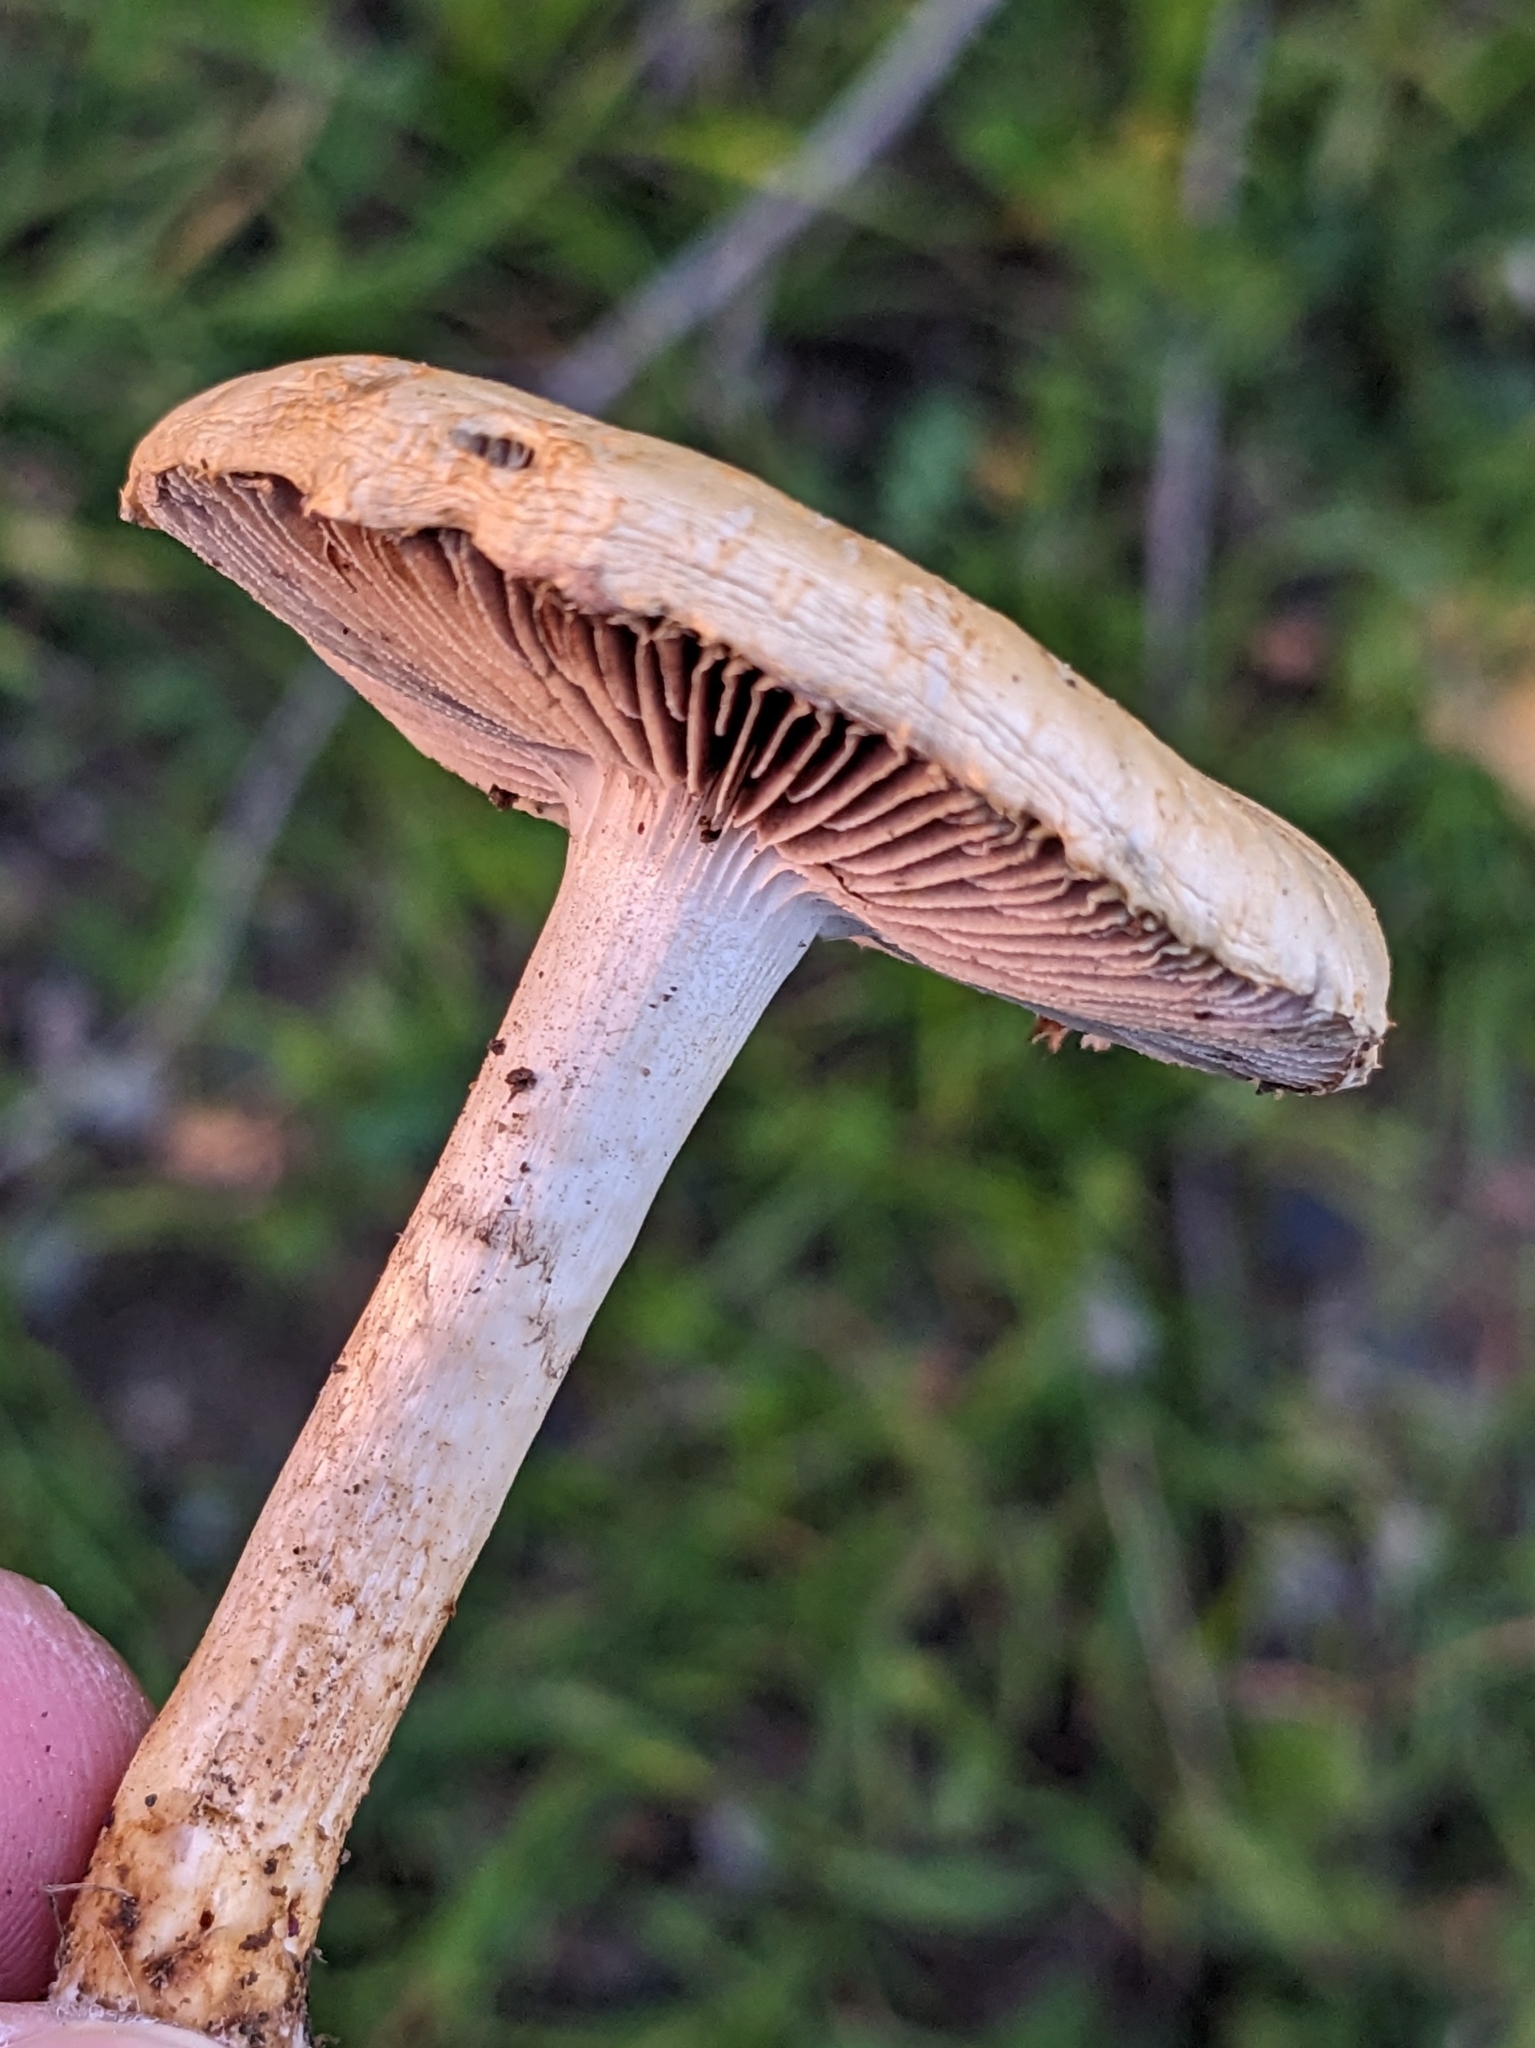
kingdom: Fungi
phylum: Basidiomycota
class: Agaricomycetes
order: Agaricales
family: Strophariaceae
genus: Leratiomyces
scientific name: Leratiomyces percevalii
